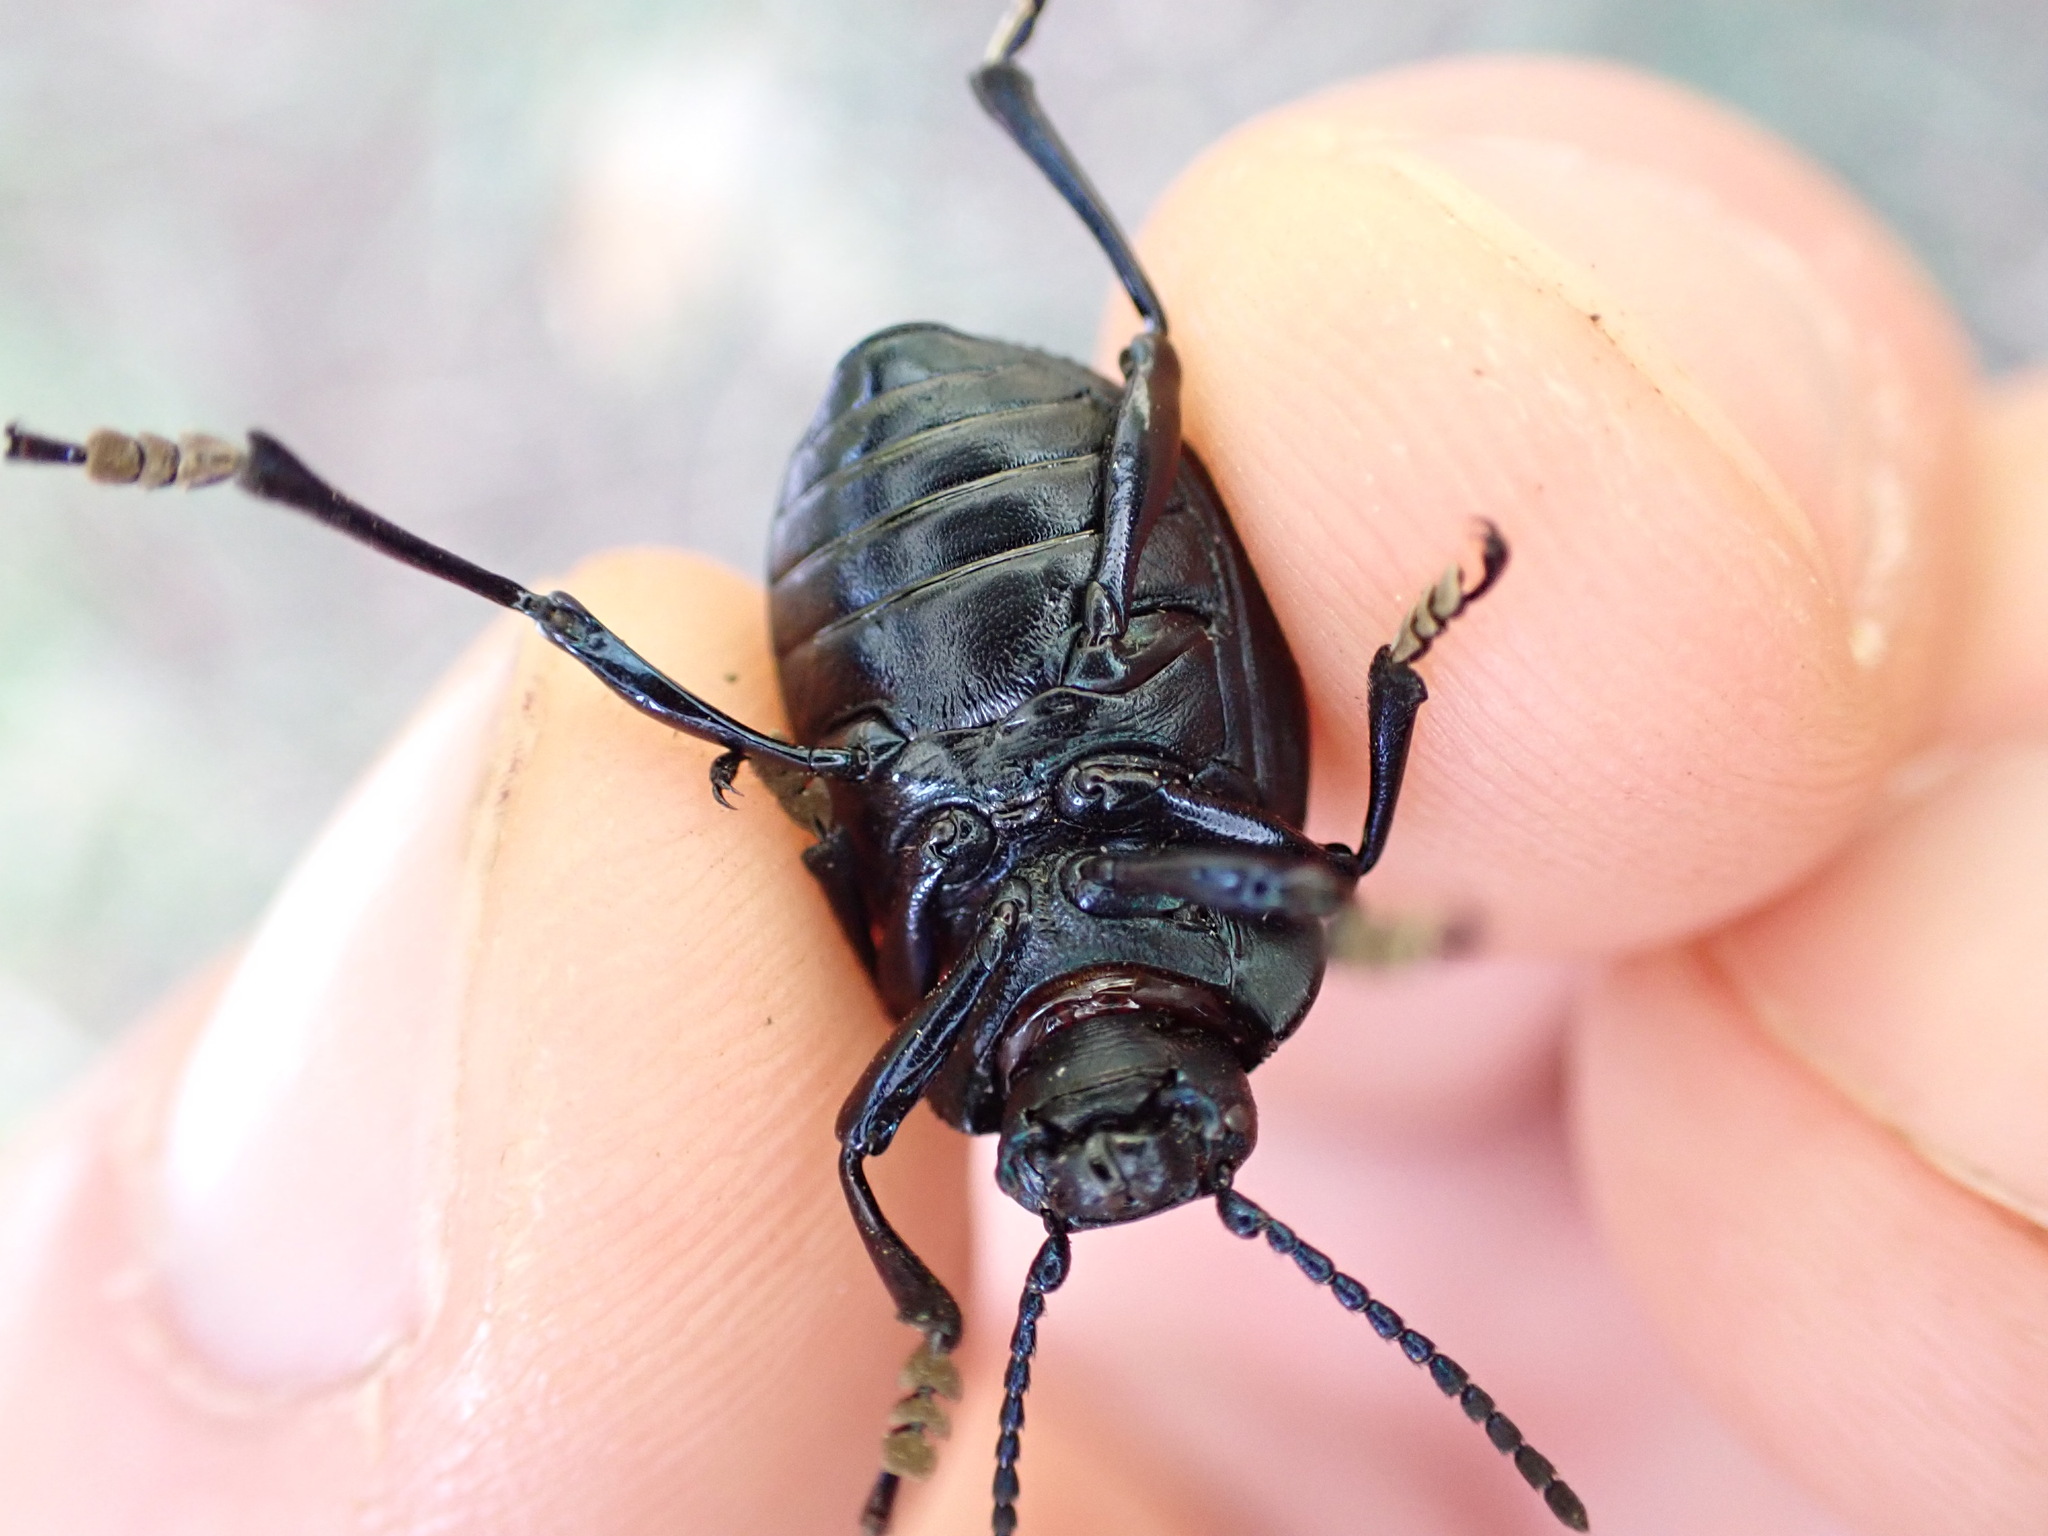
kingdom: Animalia
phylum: Arthropoda
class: Insecta
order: Coleoptera
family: Chrysomelidae
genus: Timarcha
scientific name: Timarcha tenebricosa
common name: Bloody-nosed beetle
